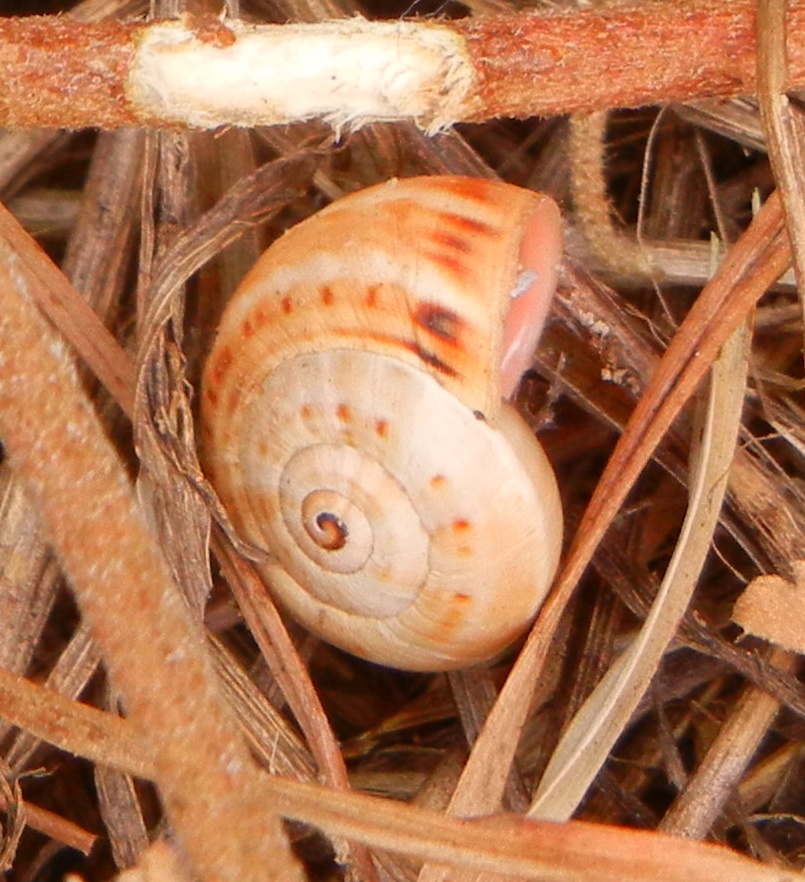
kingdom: Animalia
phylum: Mollusca
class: Gastropoda
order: Stylommatophora
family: Helicidae
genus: Theba
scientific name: Theba pisana
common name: White snail
